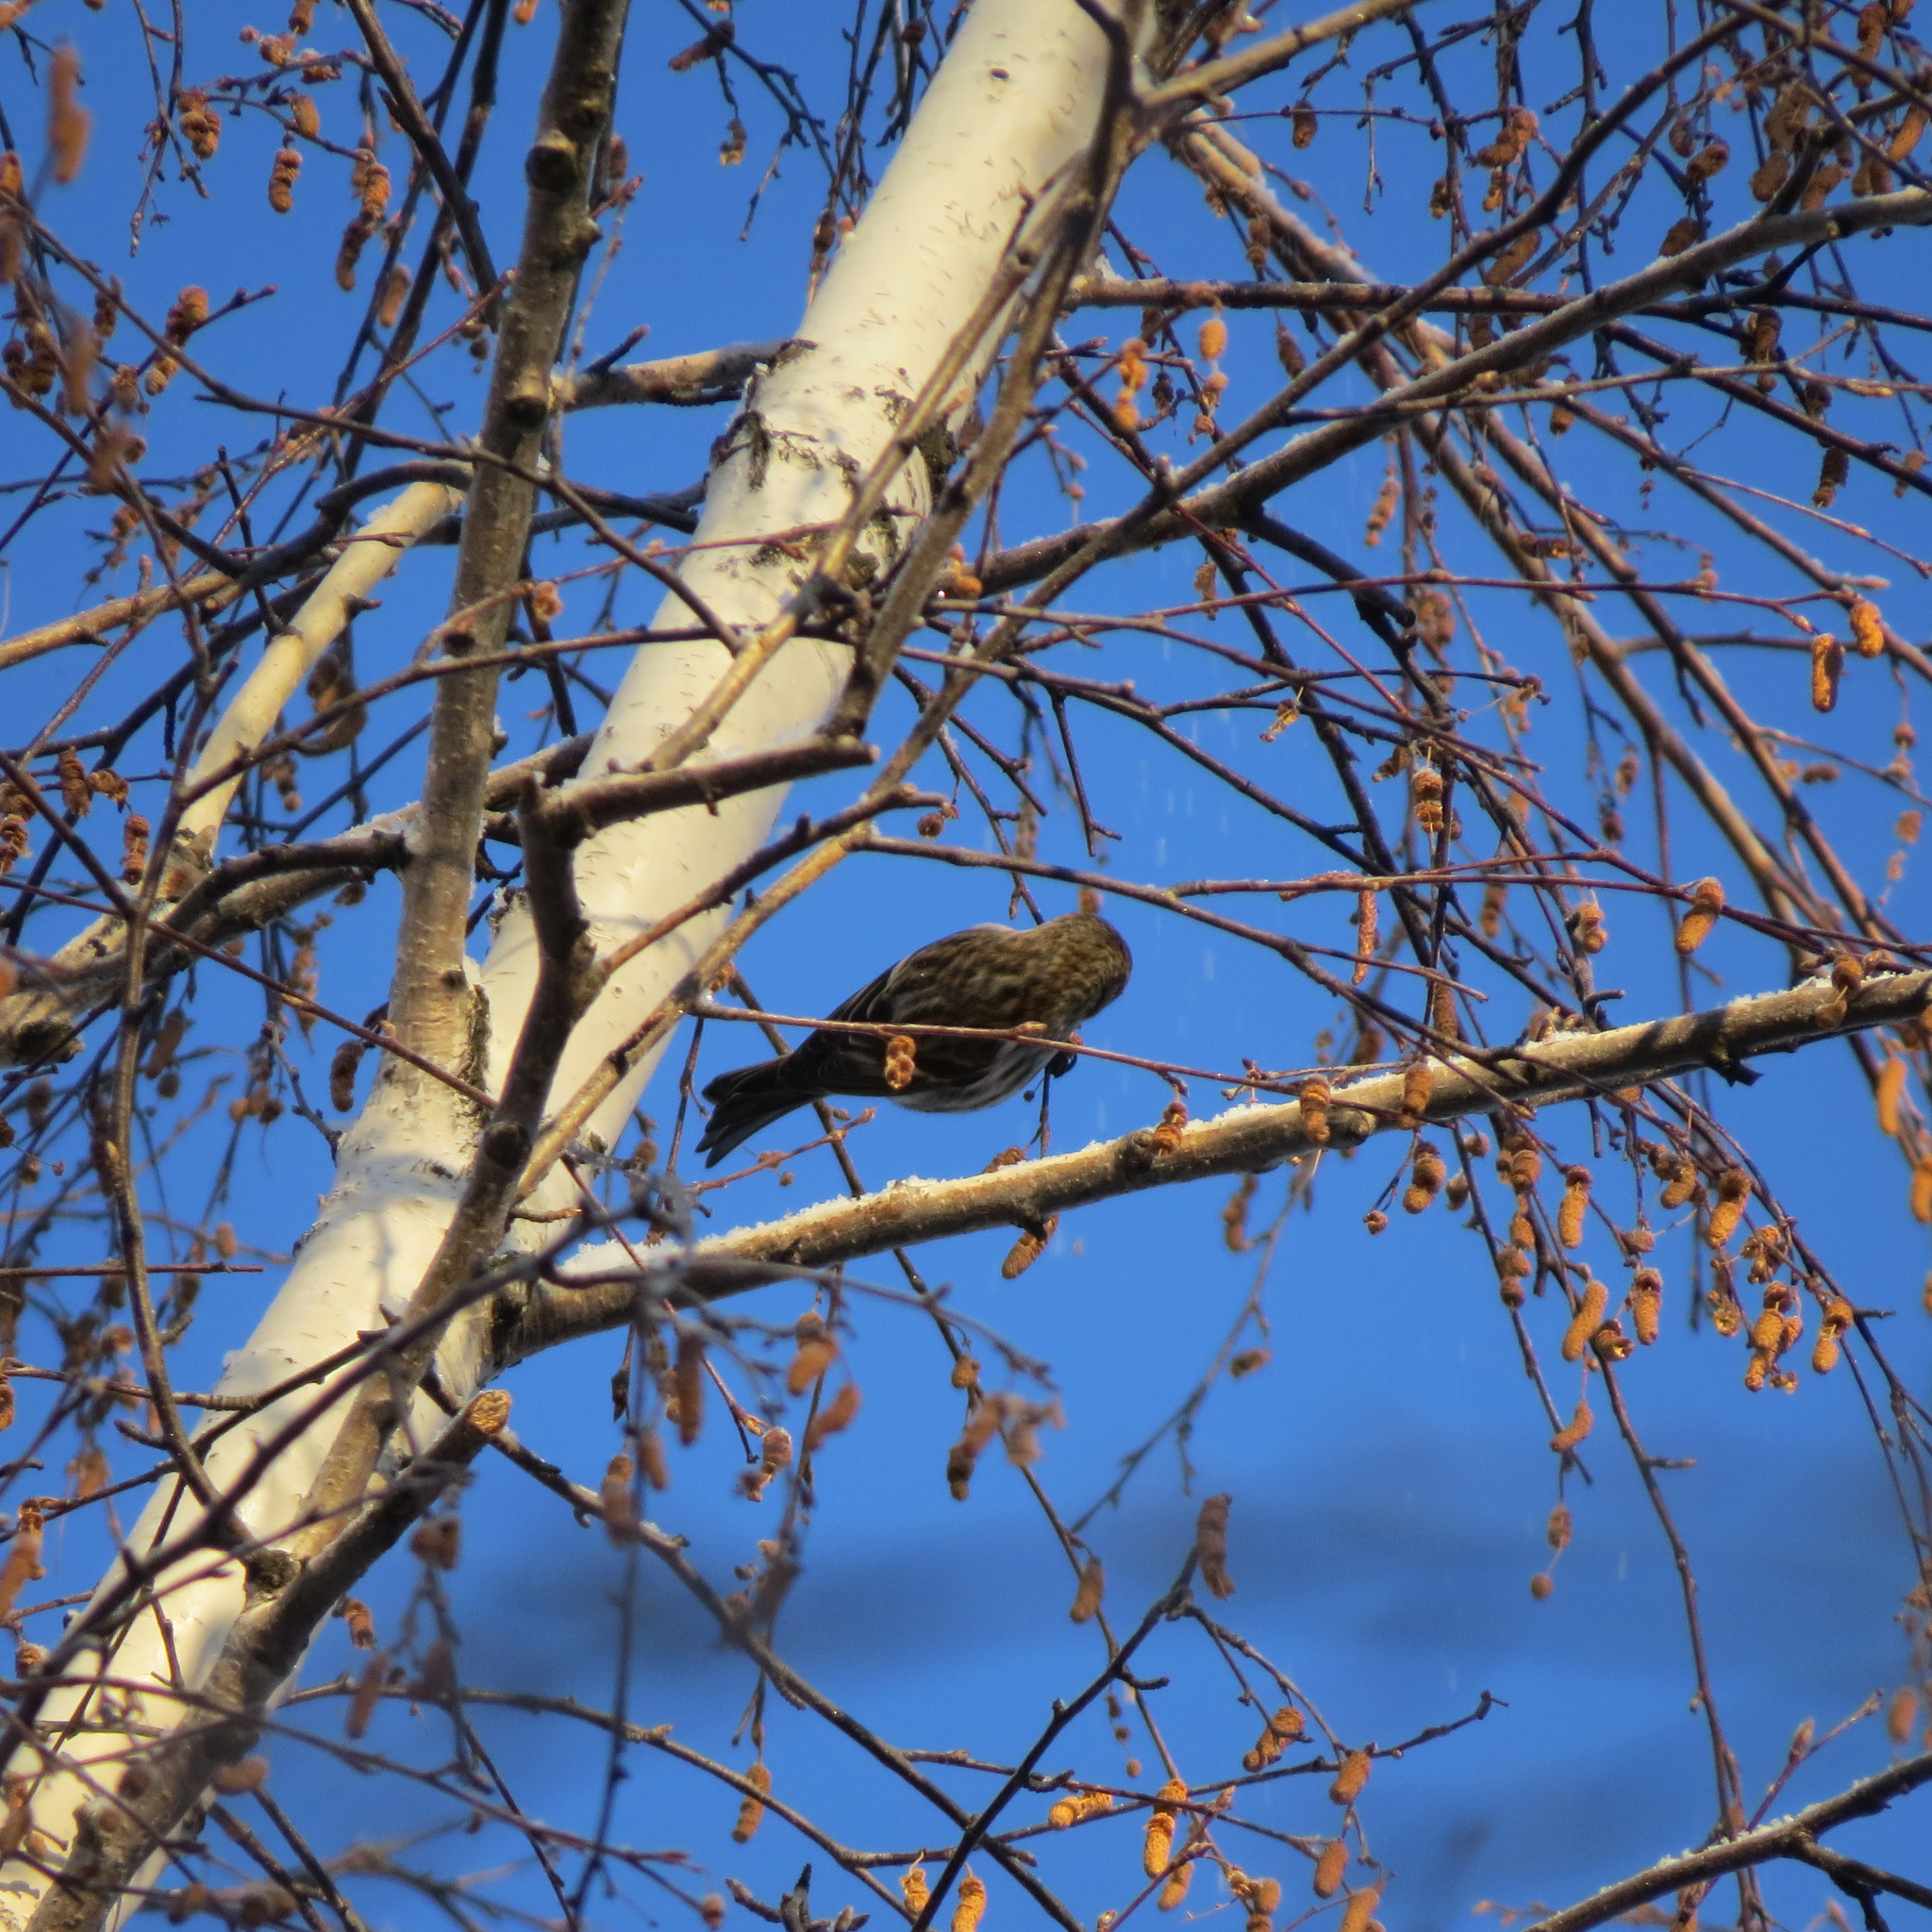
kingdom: Animalia
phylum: Chordata
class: Aves
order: Passeriformes
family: Fringillidae
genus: Acanthis
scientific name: Acanthis flammea
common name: Common redpoll
